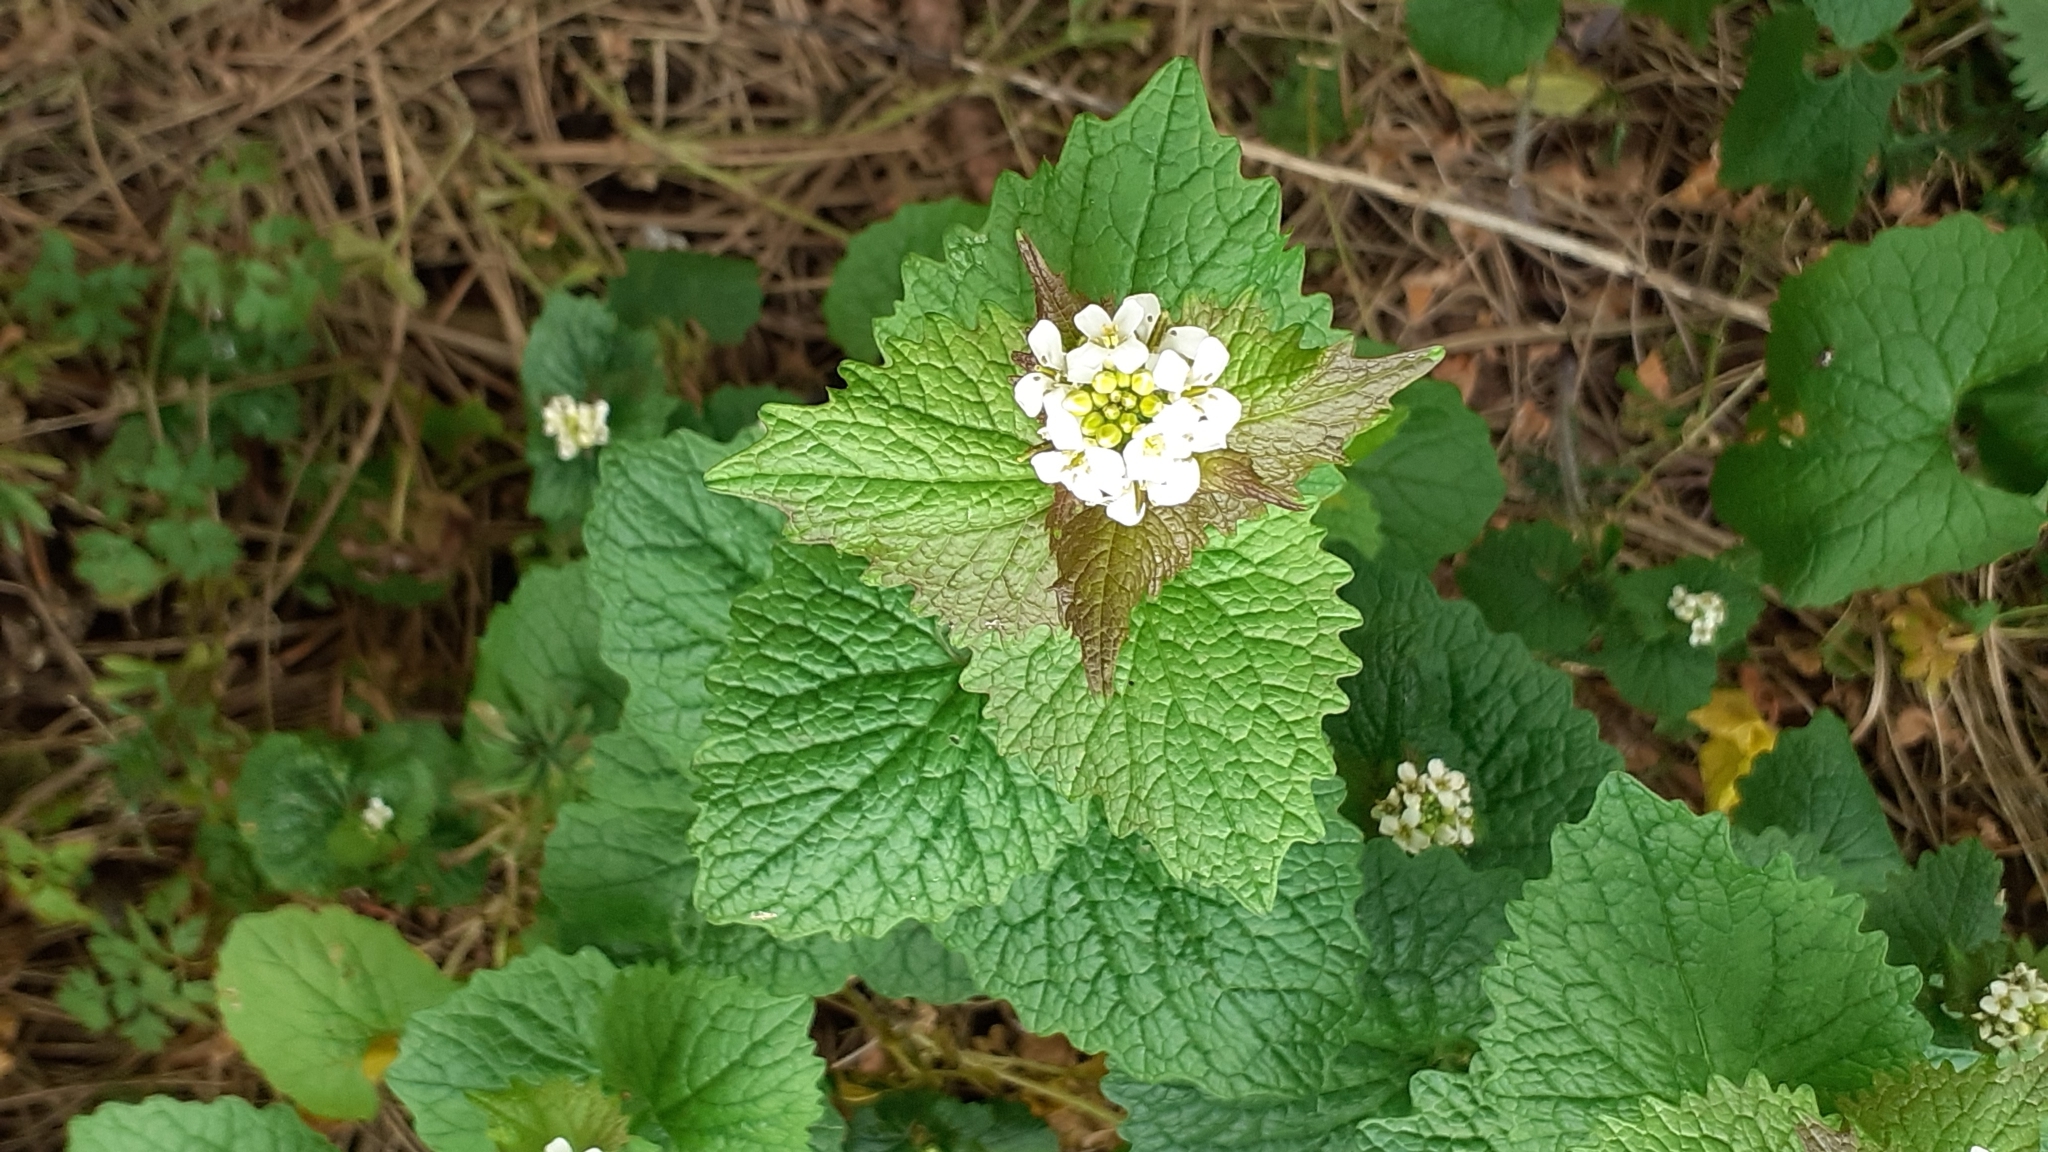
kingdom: Plantae
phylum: Tracheophyta
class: Magnoliopsida
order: Brassicales
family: Brassicaceae
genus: Alliaria
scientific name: Alliaria petiolata
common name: Garlic mustard
